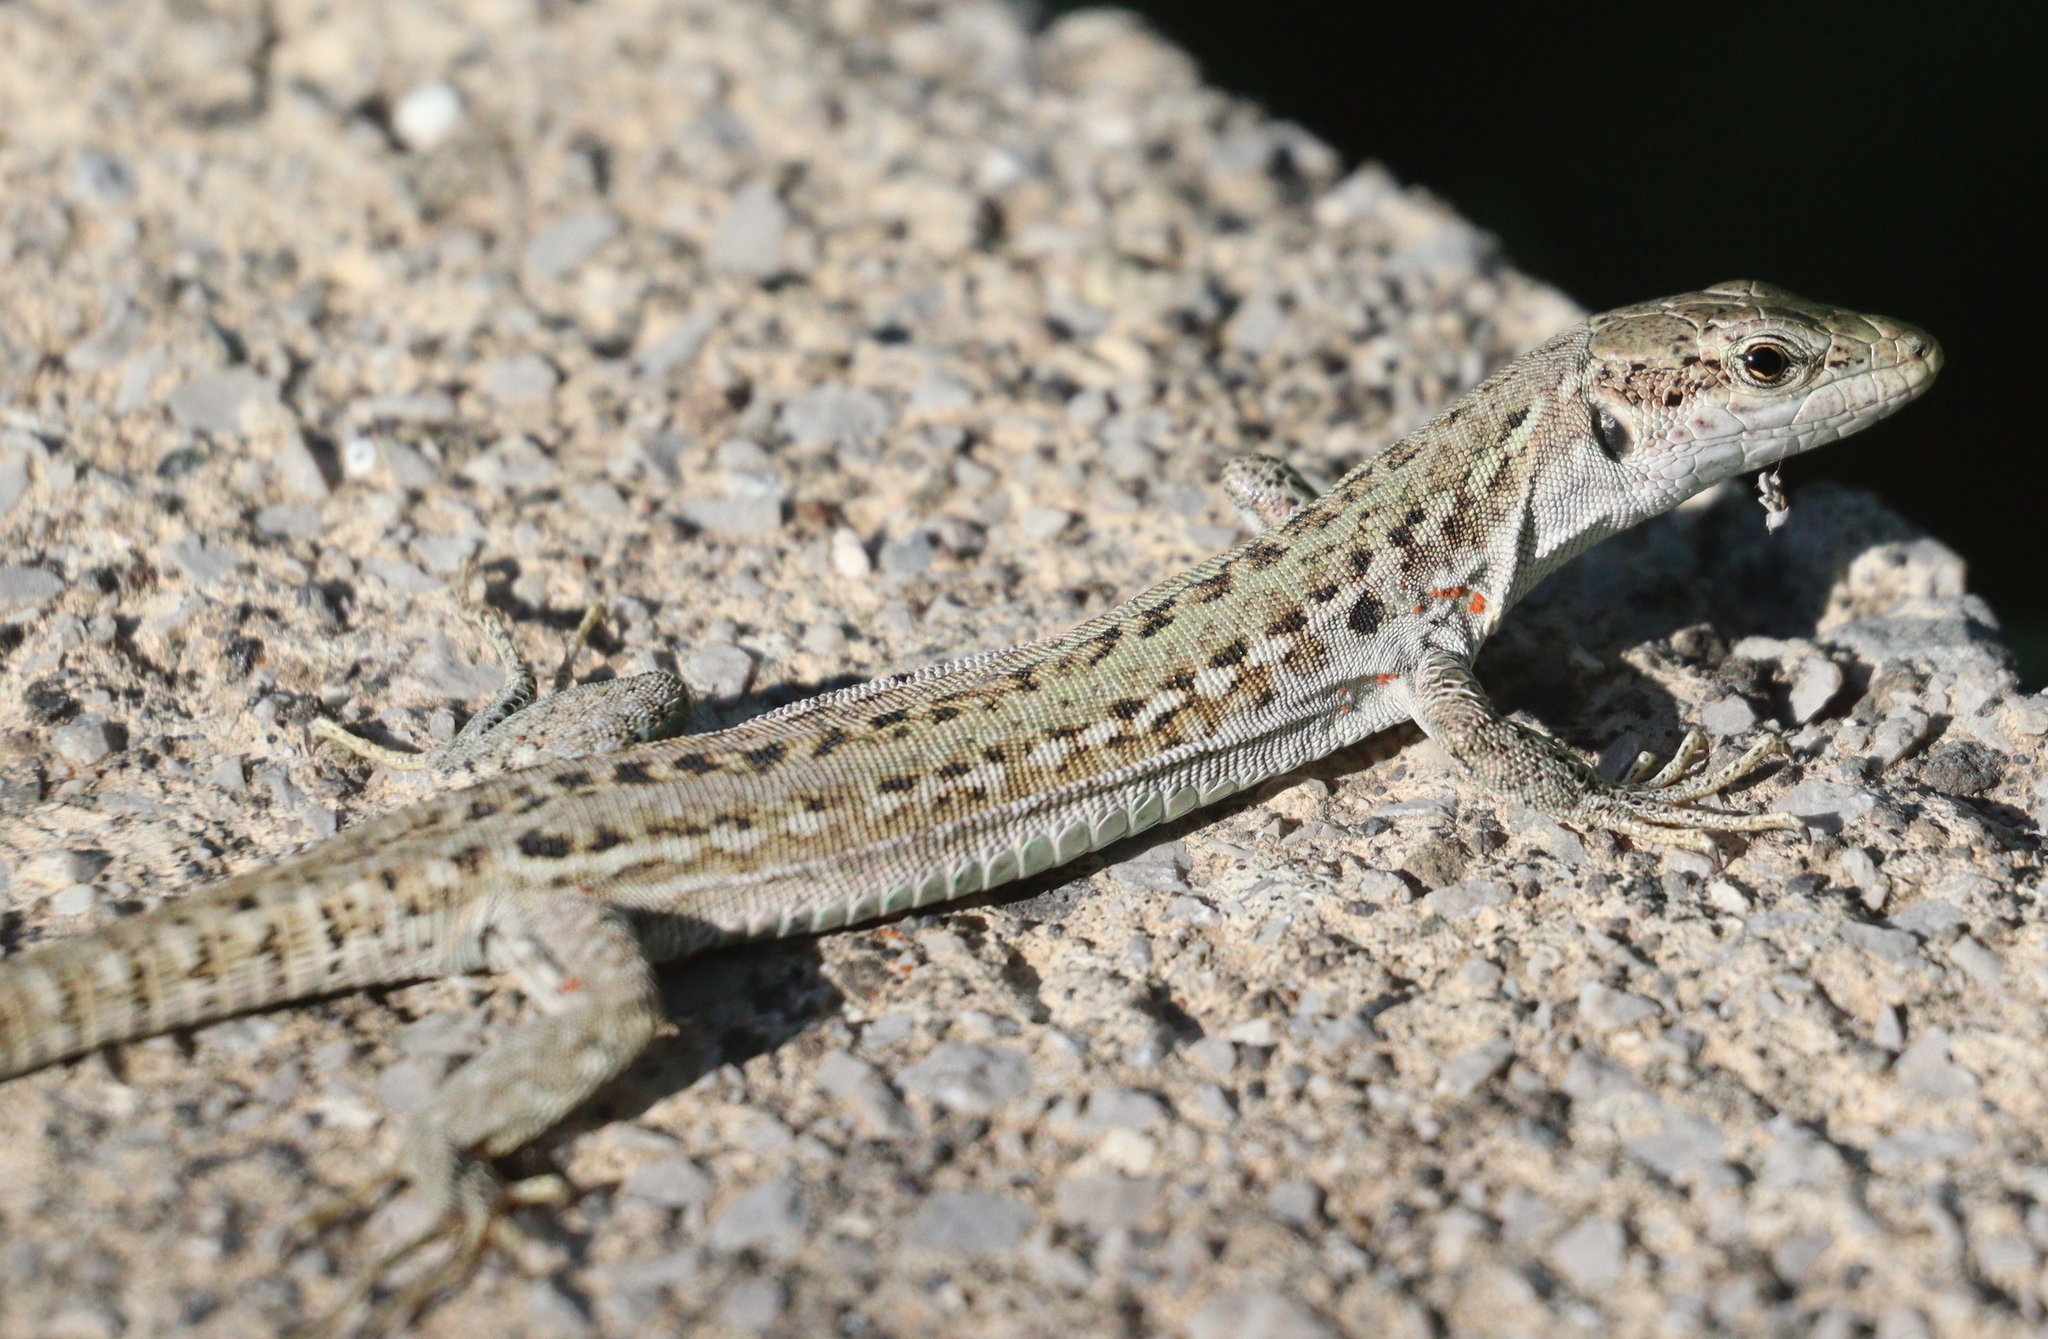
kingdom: Animalia
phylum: Chordata
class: Squamata
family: Lacertidae
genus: Podarcis
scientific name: Podarcis siculus
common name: Italian wall lizard
